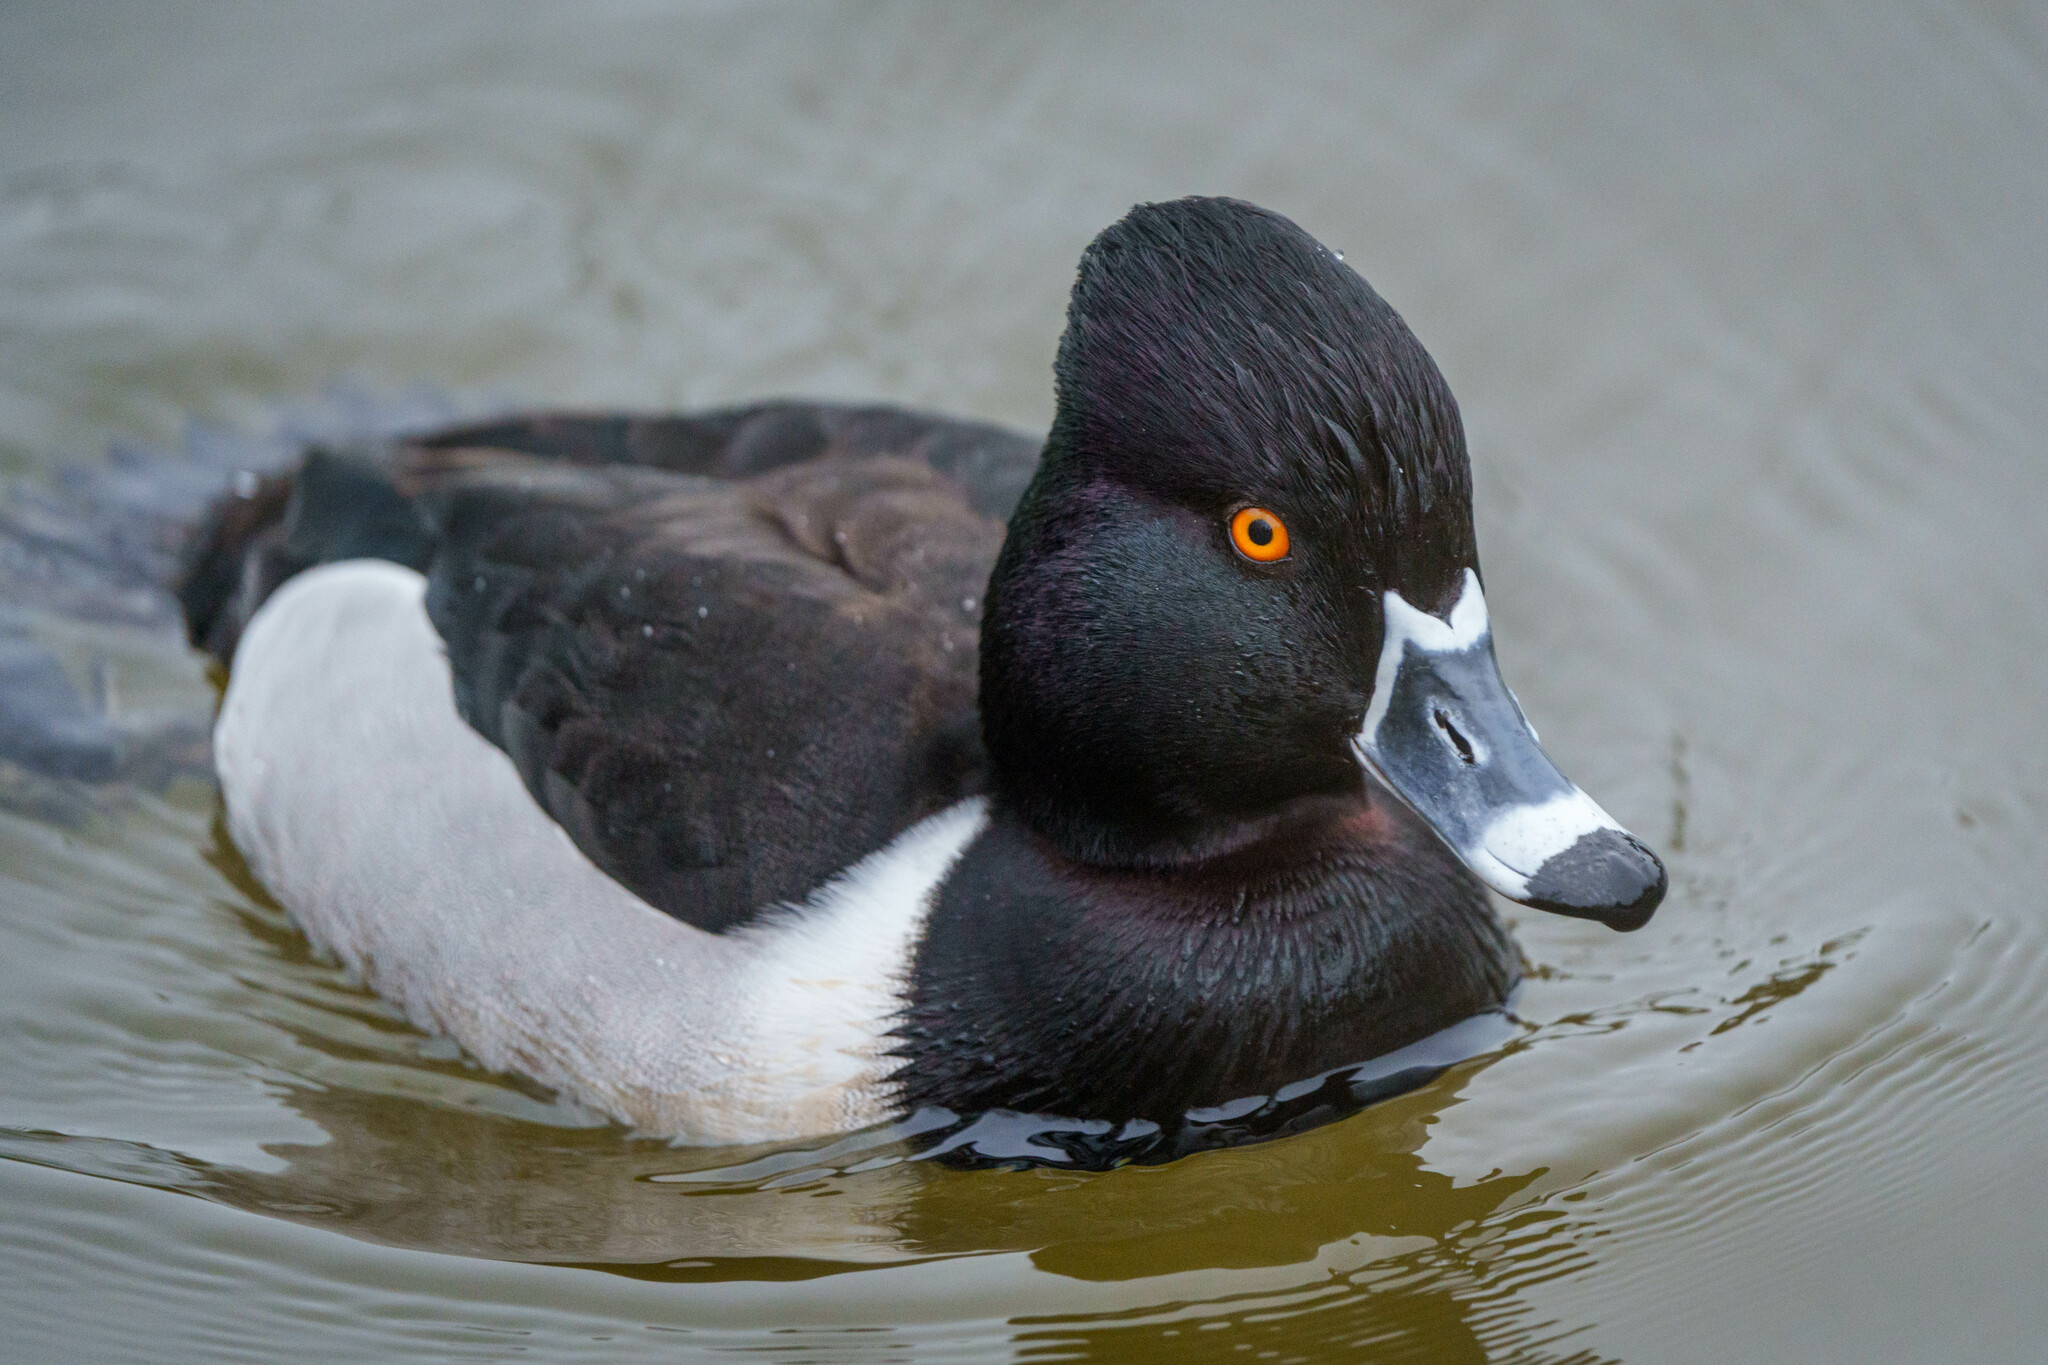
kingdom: Animalia
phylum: Chordata
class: Aves
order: Anseriformes
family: Anatidae
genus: Aythya
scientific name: Aythya collaris
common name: Ring-necked duck
